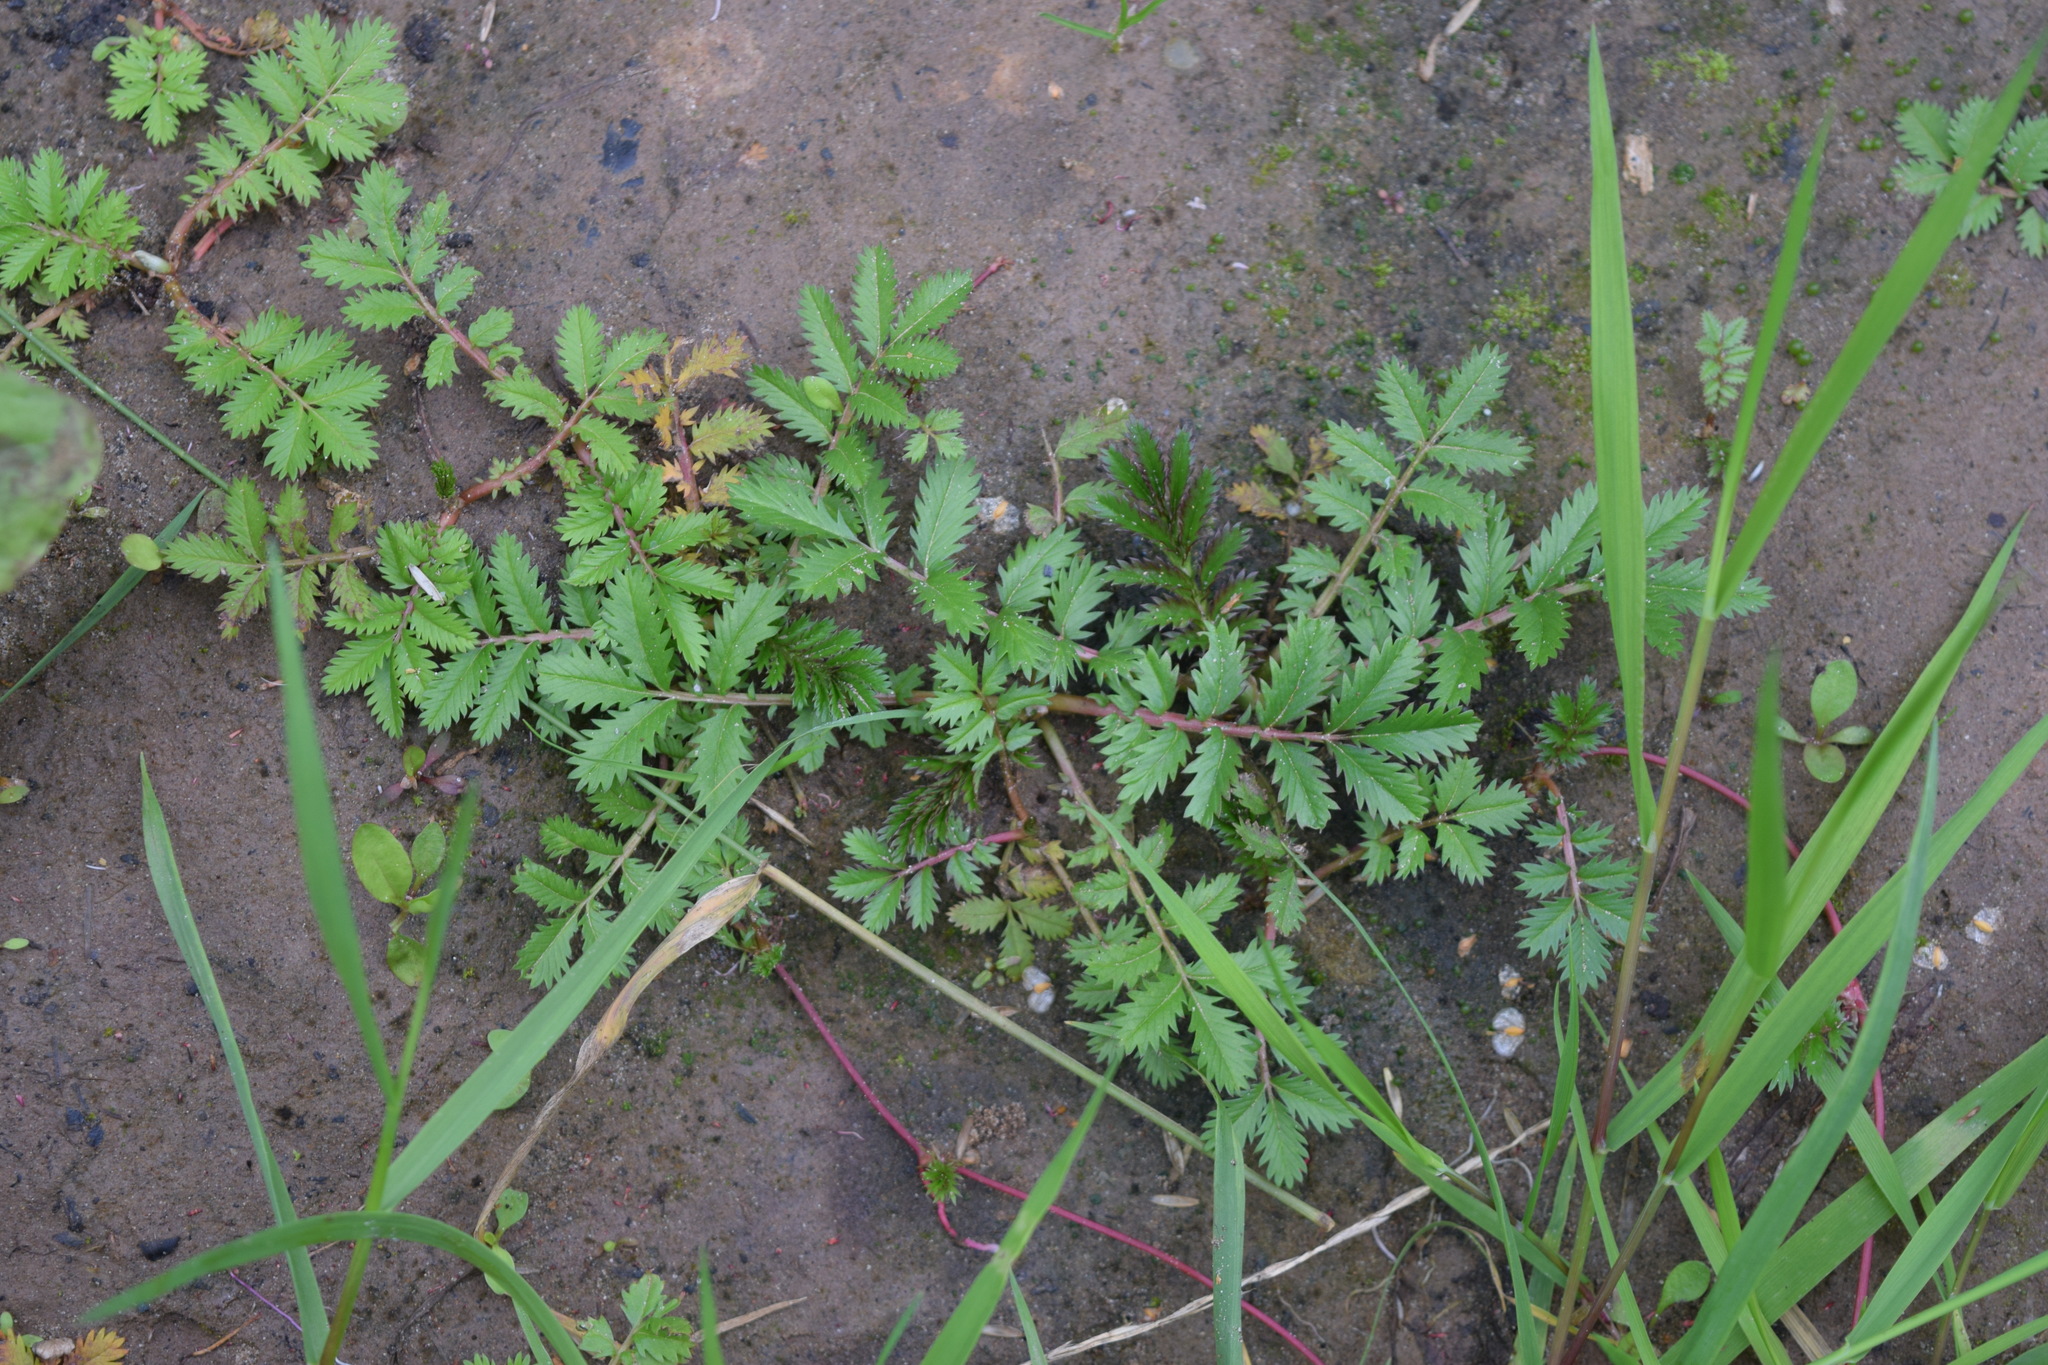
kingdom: Plantae
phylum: Tracheophyta
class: Magnoliopsida
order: Rosales
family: Rosaceae
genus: Argentina
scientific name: Argentina anserina
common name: Common silverweed
